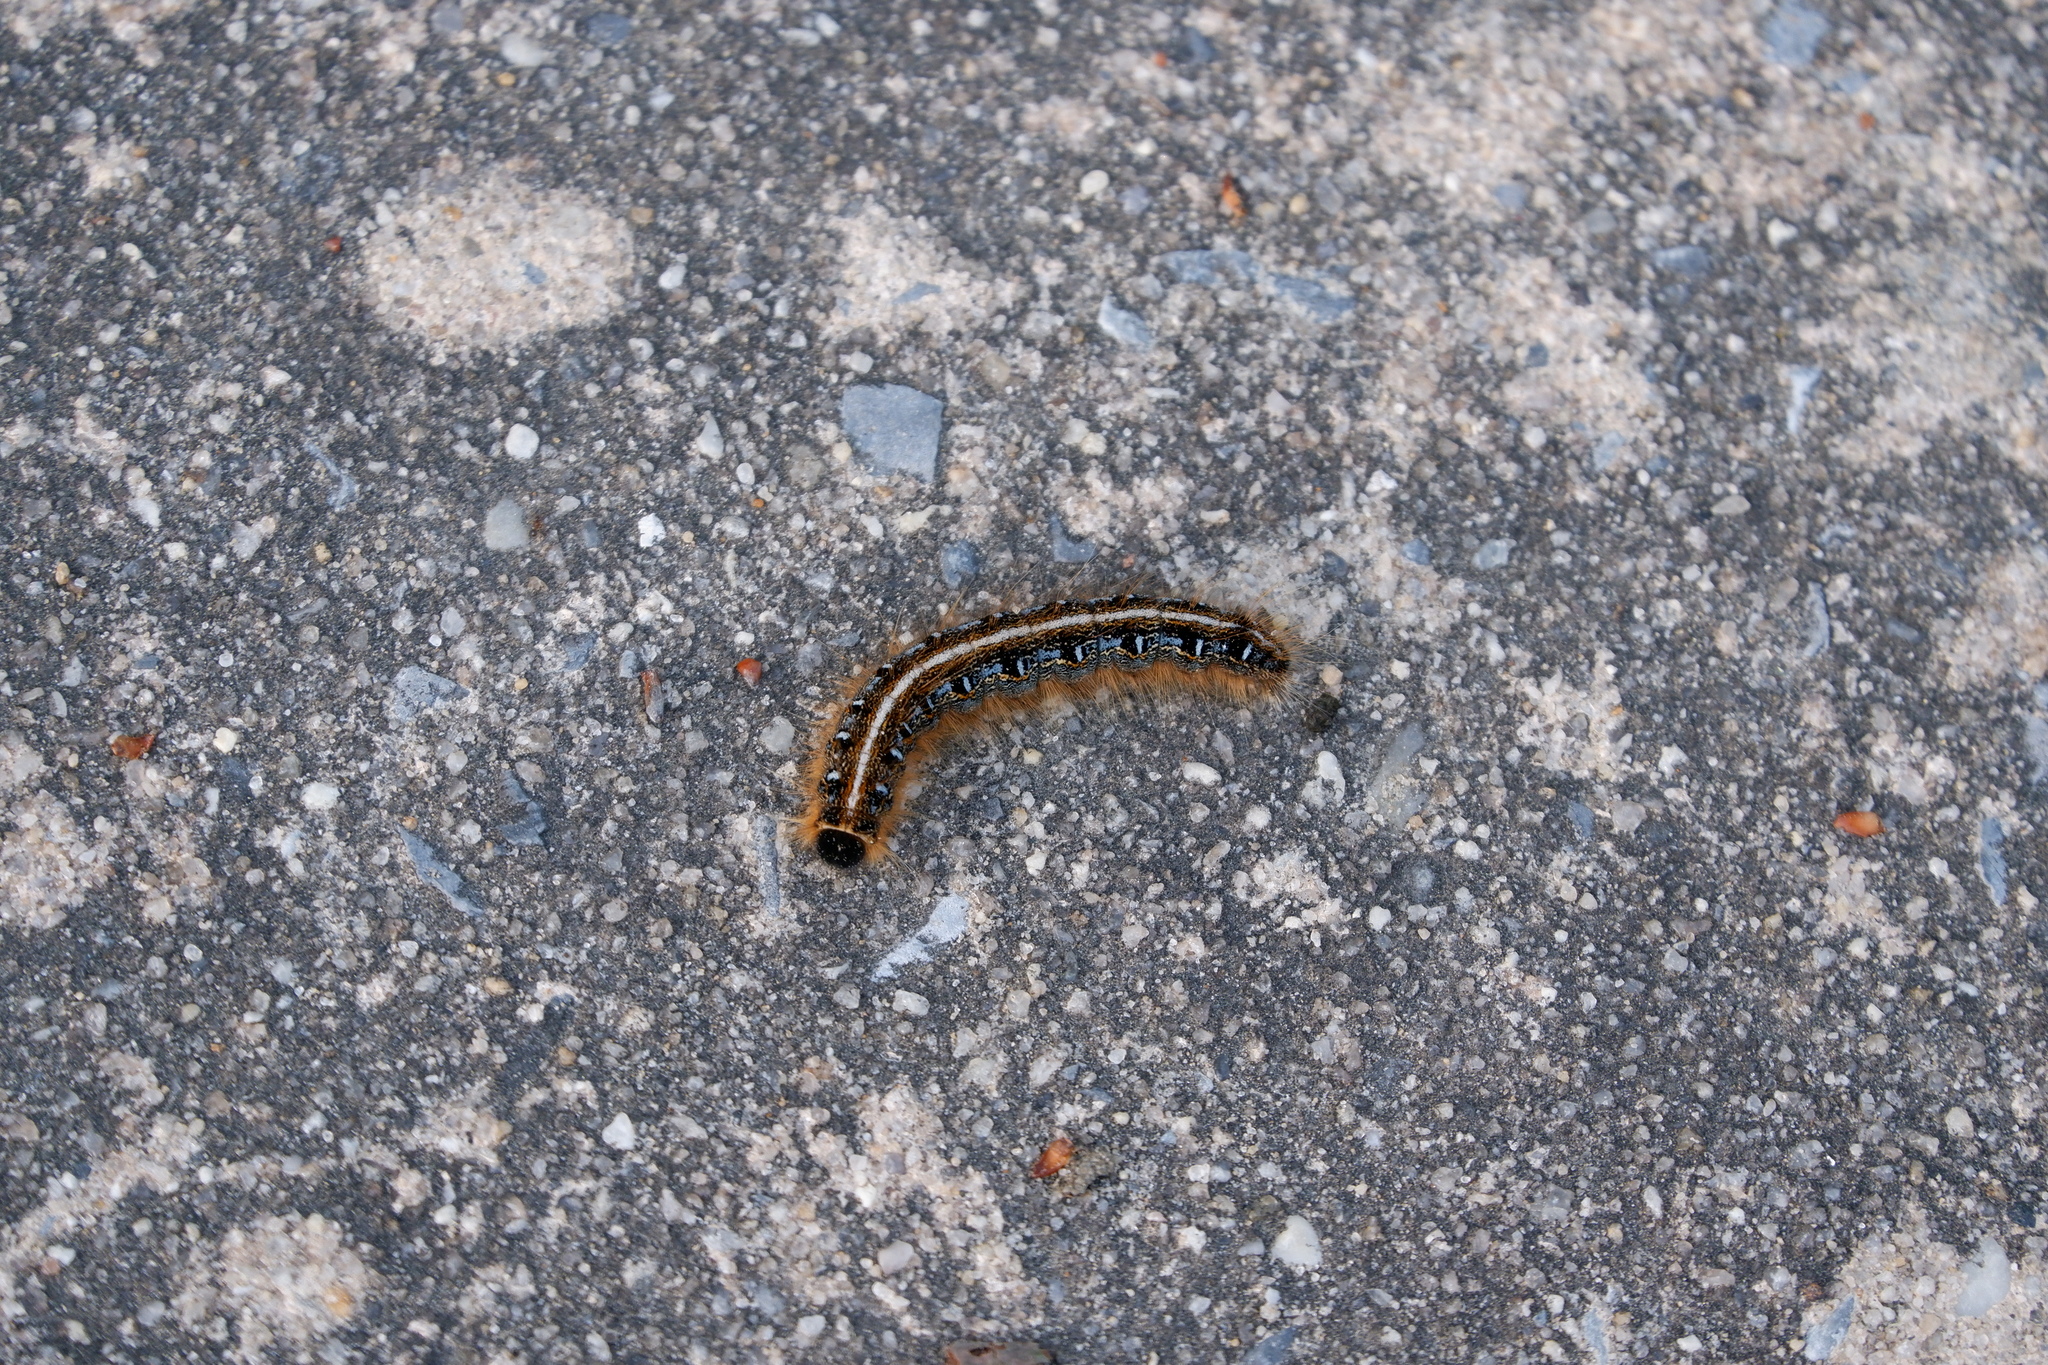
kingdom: Animalia
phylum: Arthropoda
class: Insecta
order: Lepidoptera
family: Lasiocampidae
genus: Malacosoma
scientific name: Malacosoma americana
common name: Eastern tent caterpillar moth
